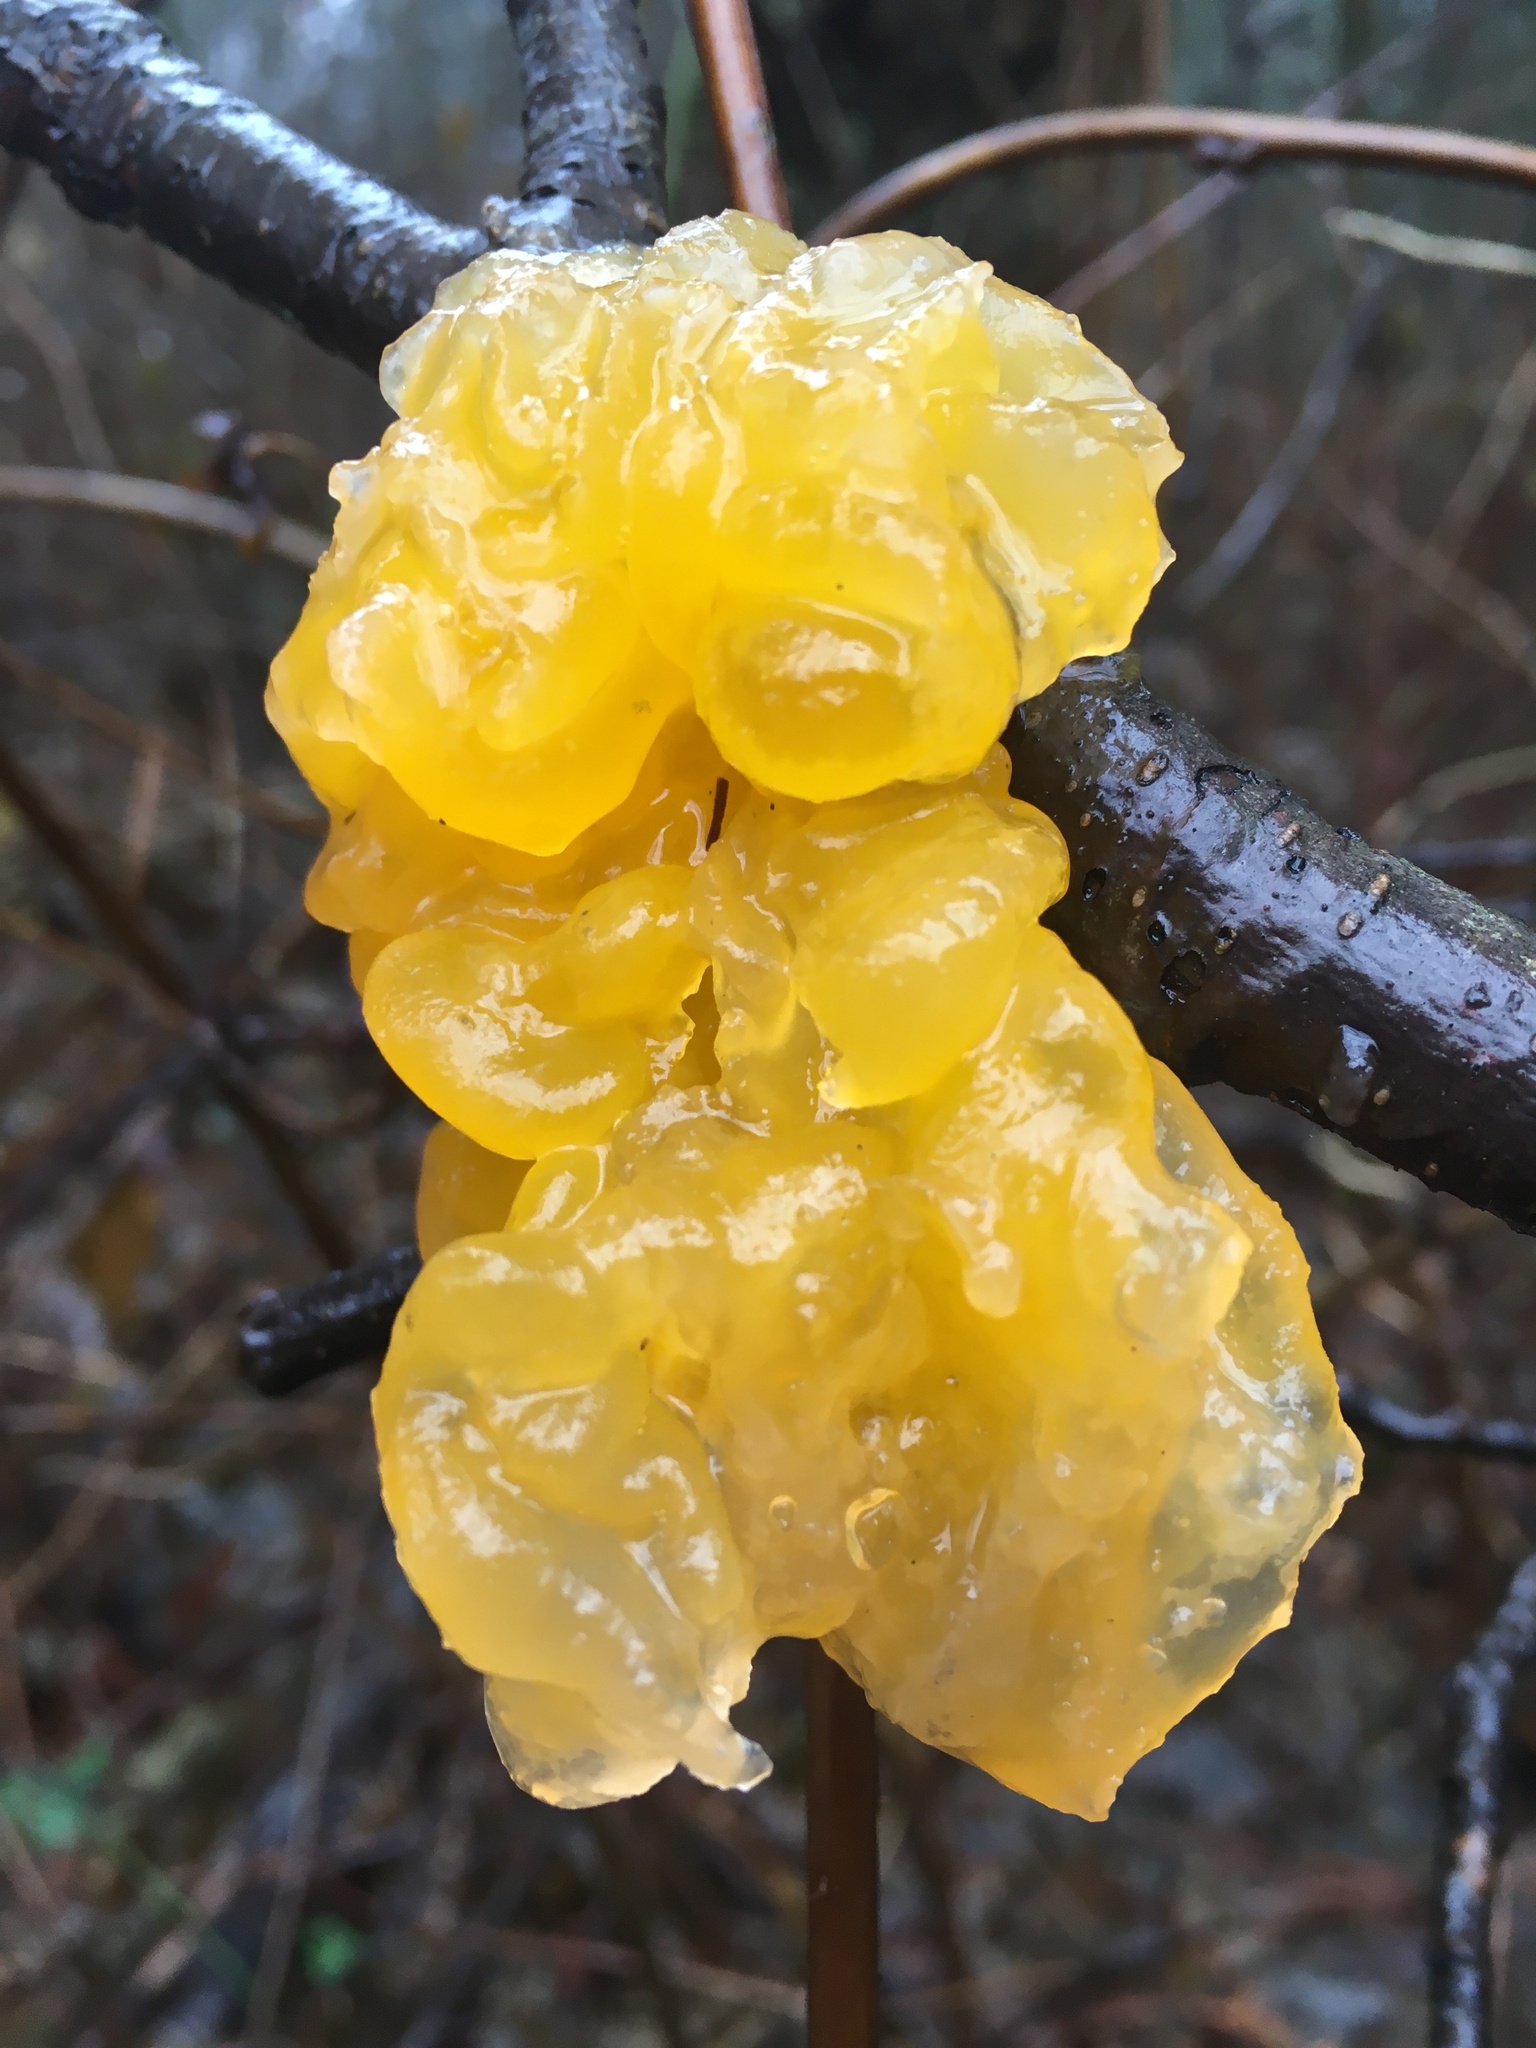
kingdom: Fungi
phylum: Basidiomycota
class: Tremellomycetes
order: Tremellales
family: Tremellaceae
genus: Tremella
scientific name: Tremella mesenterica
